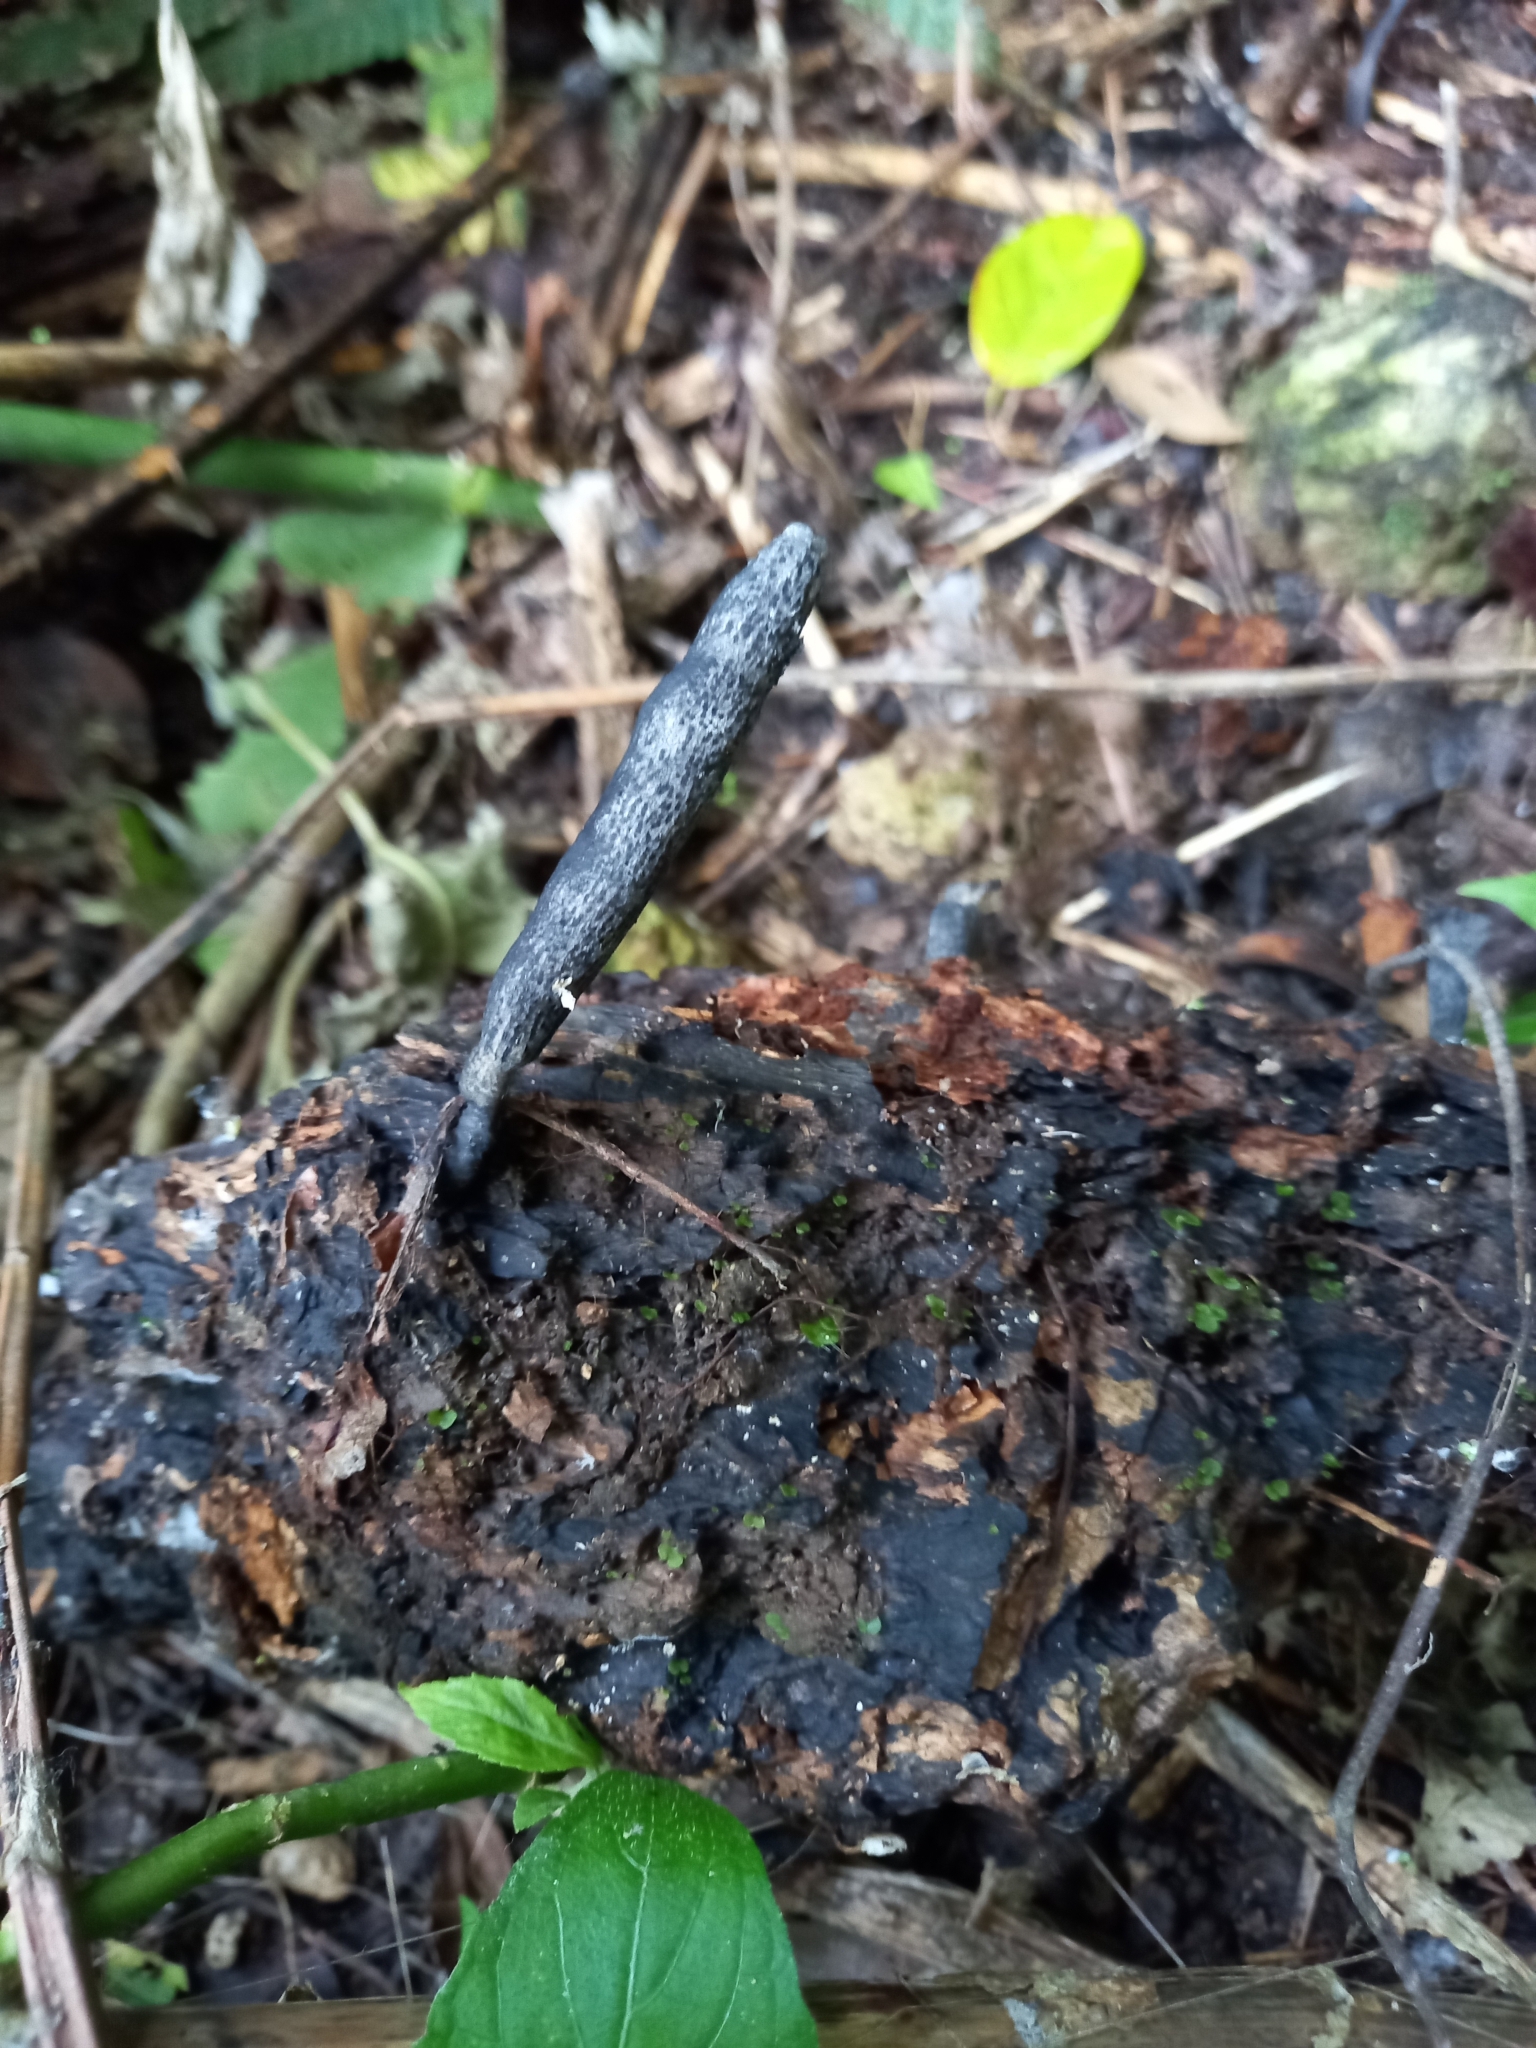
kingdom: Fungi
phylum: Ascomycota
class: Sordariomycetes
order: Xylariales
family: Xylariaceae
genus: Xylaria
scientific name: Xylaria grammica
